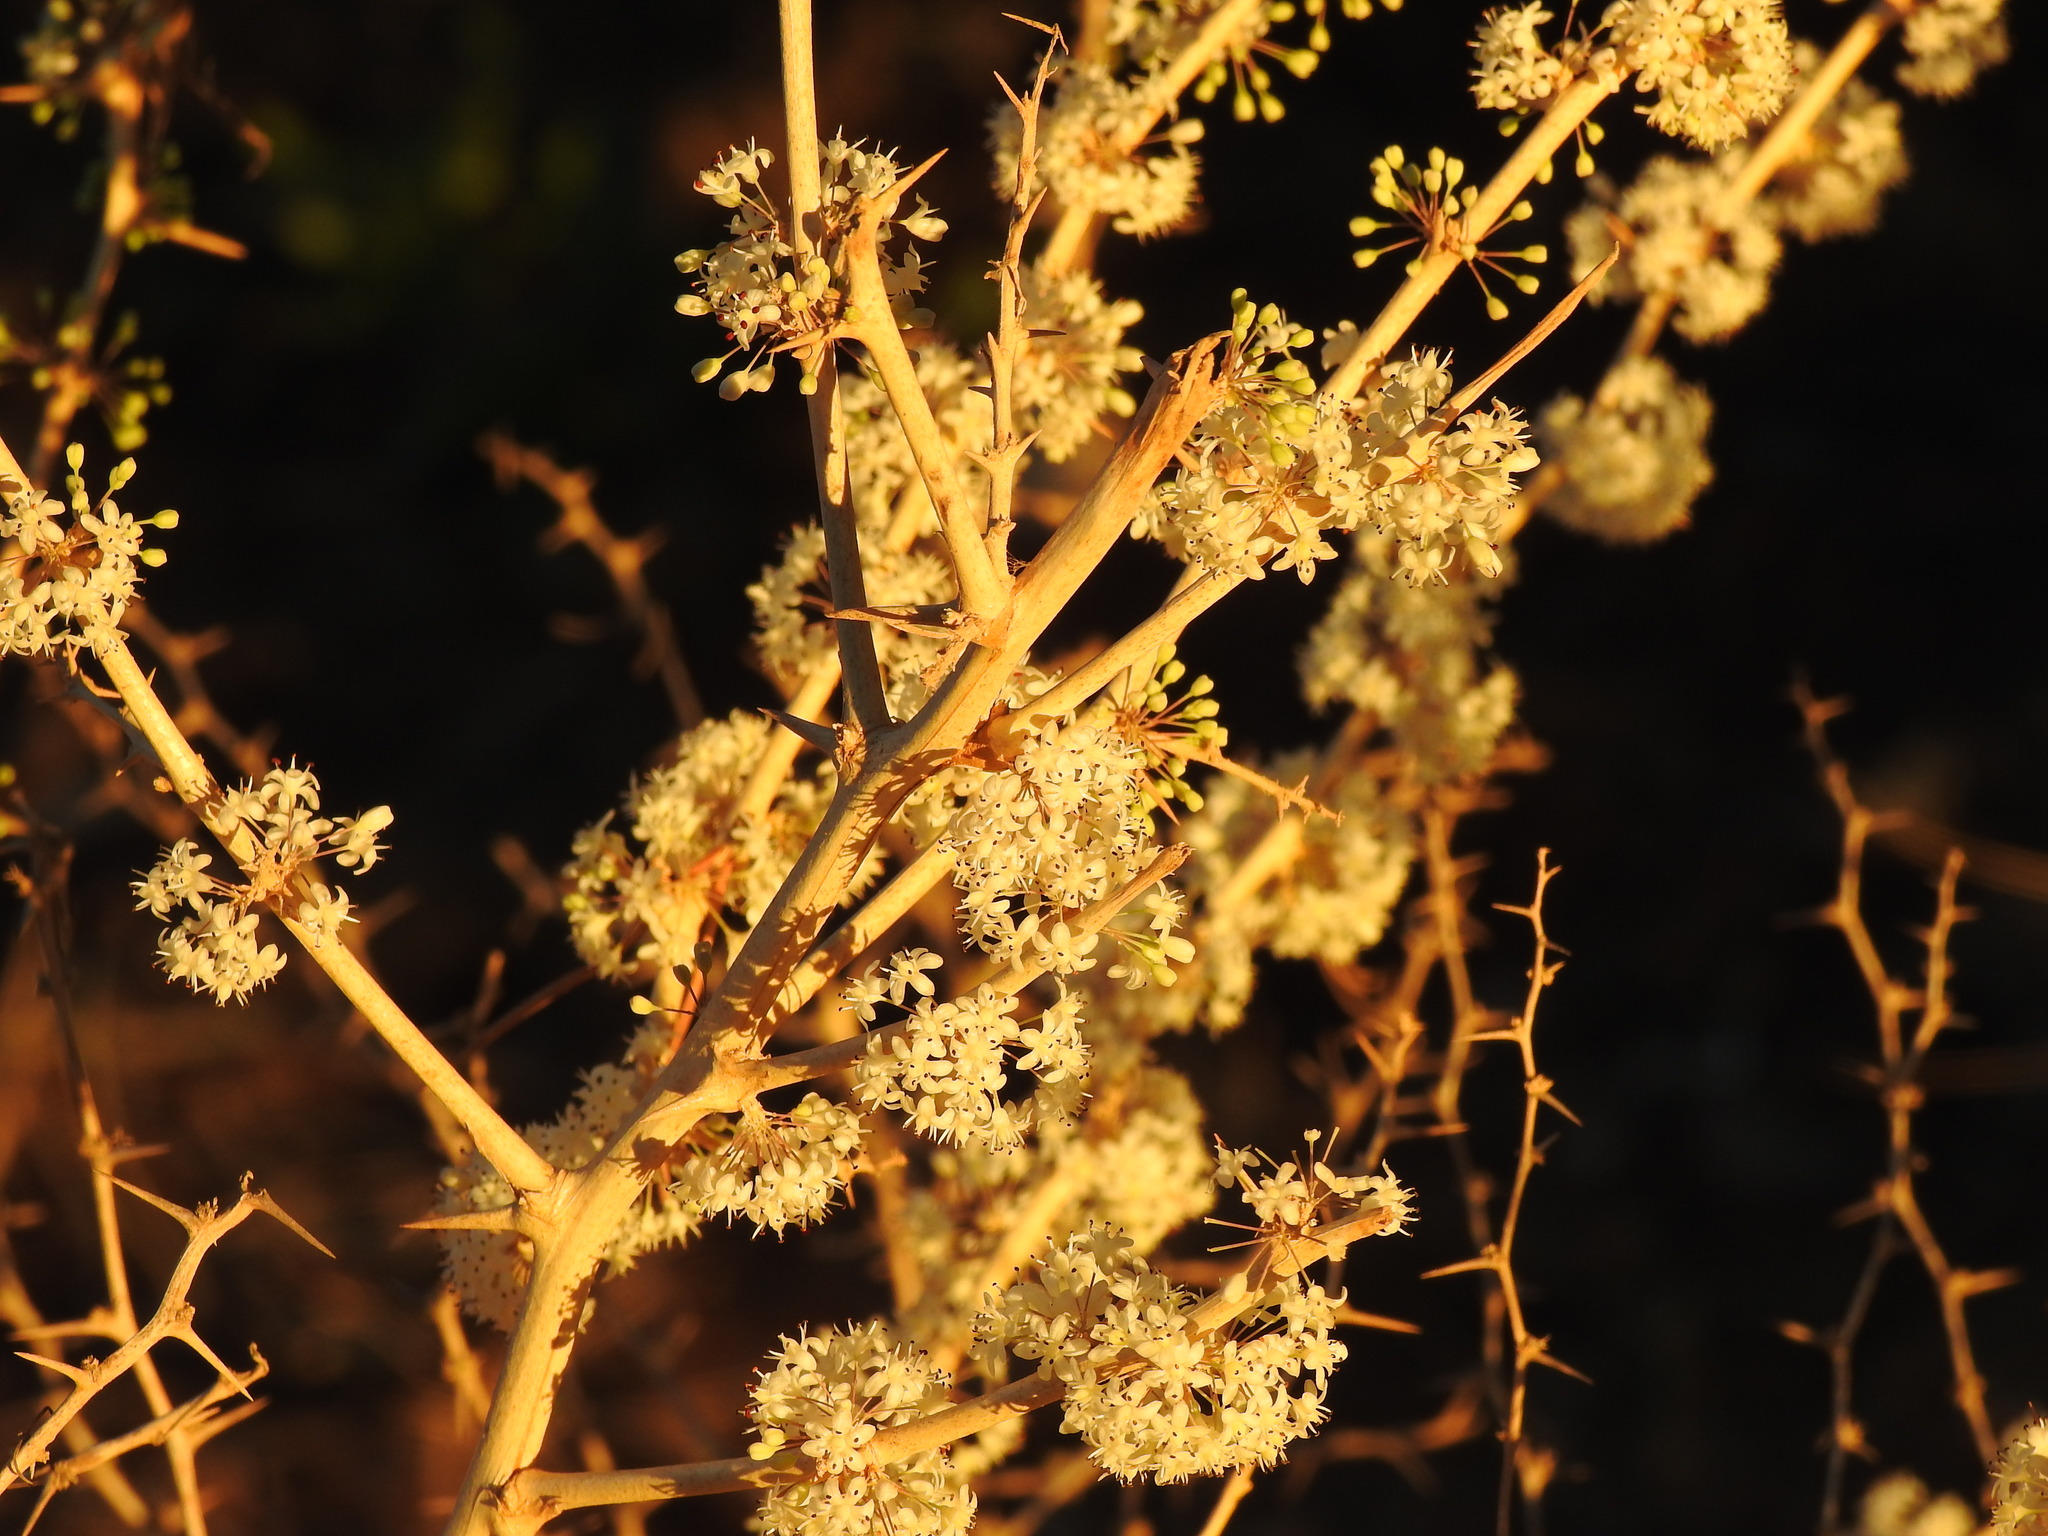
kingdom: Plantae
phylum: Tracheophyta
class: Liliopsida
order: Asparagales
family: Asparagaceae
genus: Asparagus
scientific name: Asparagus albus
